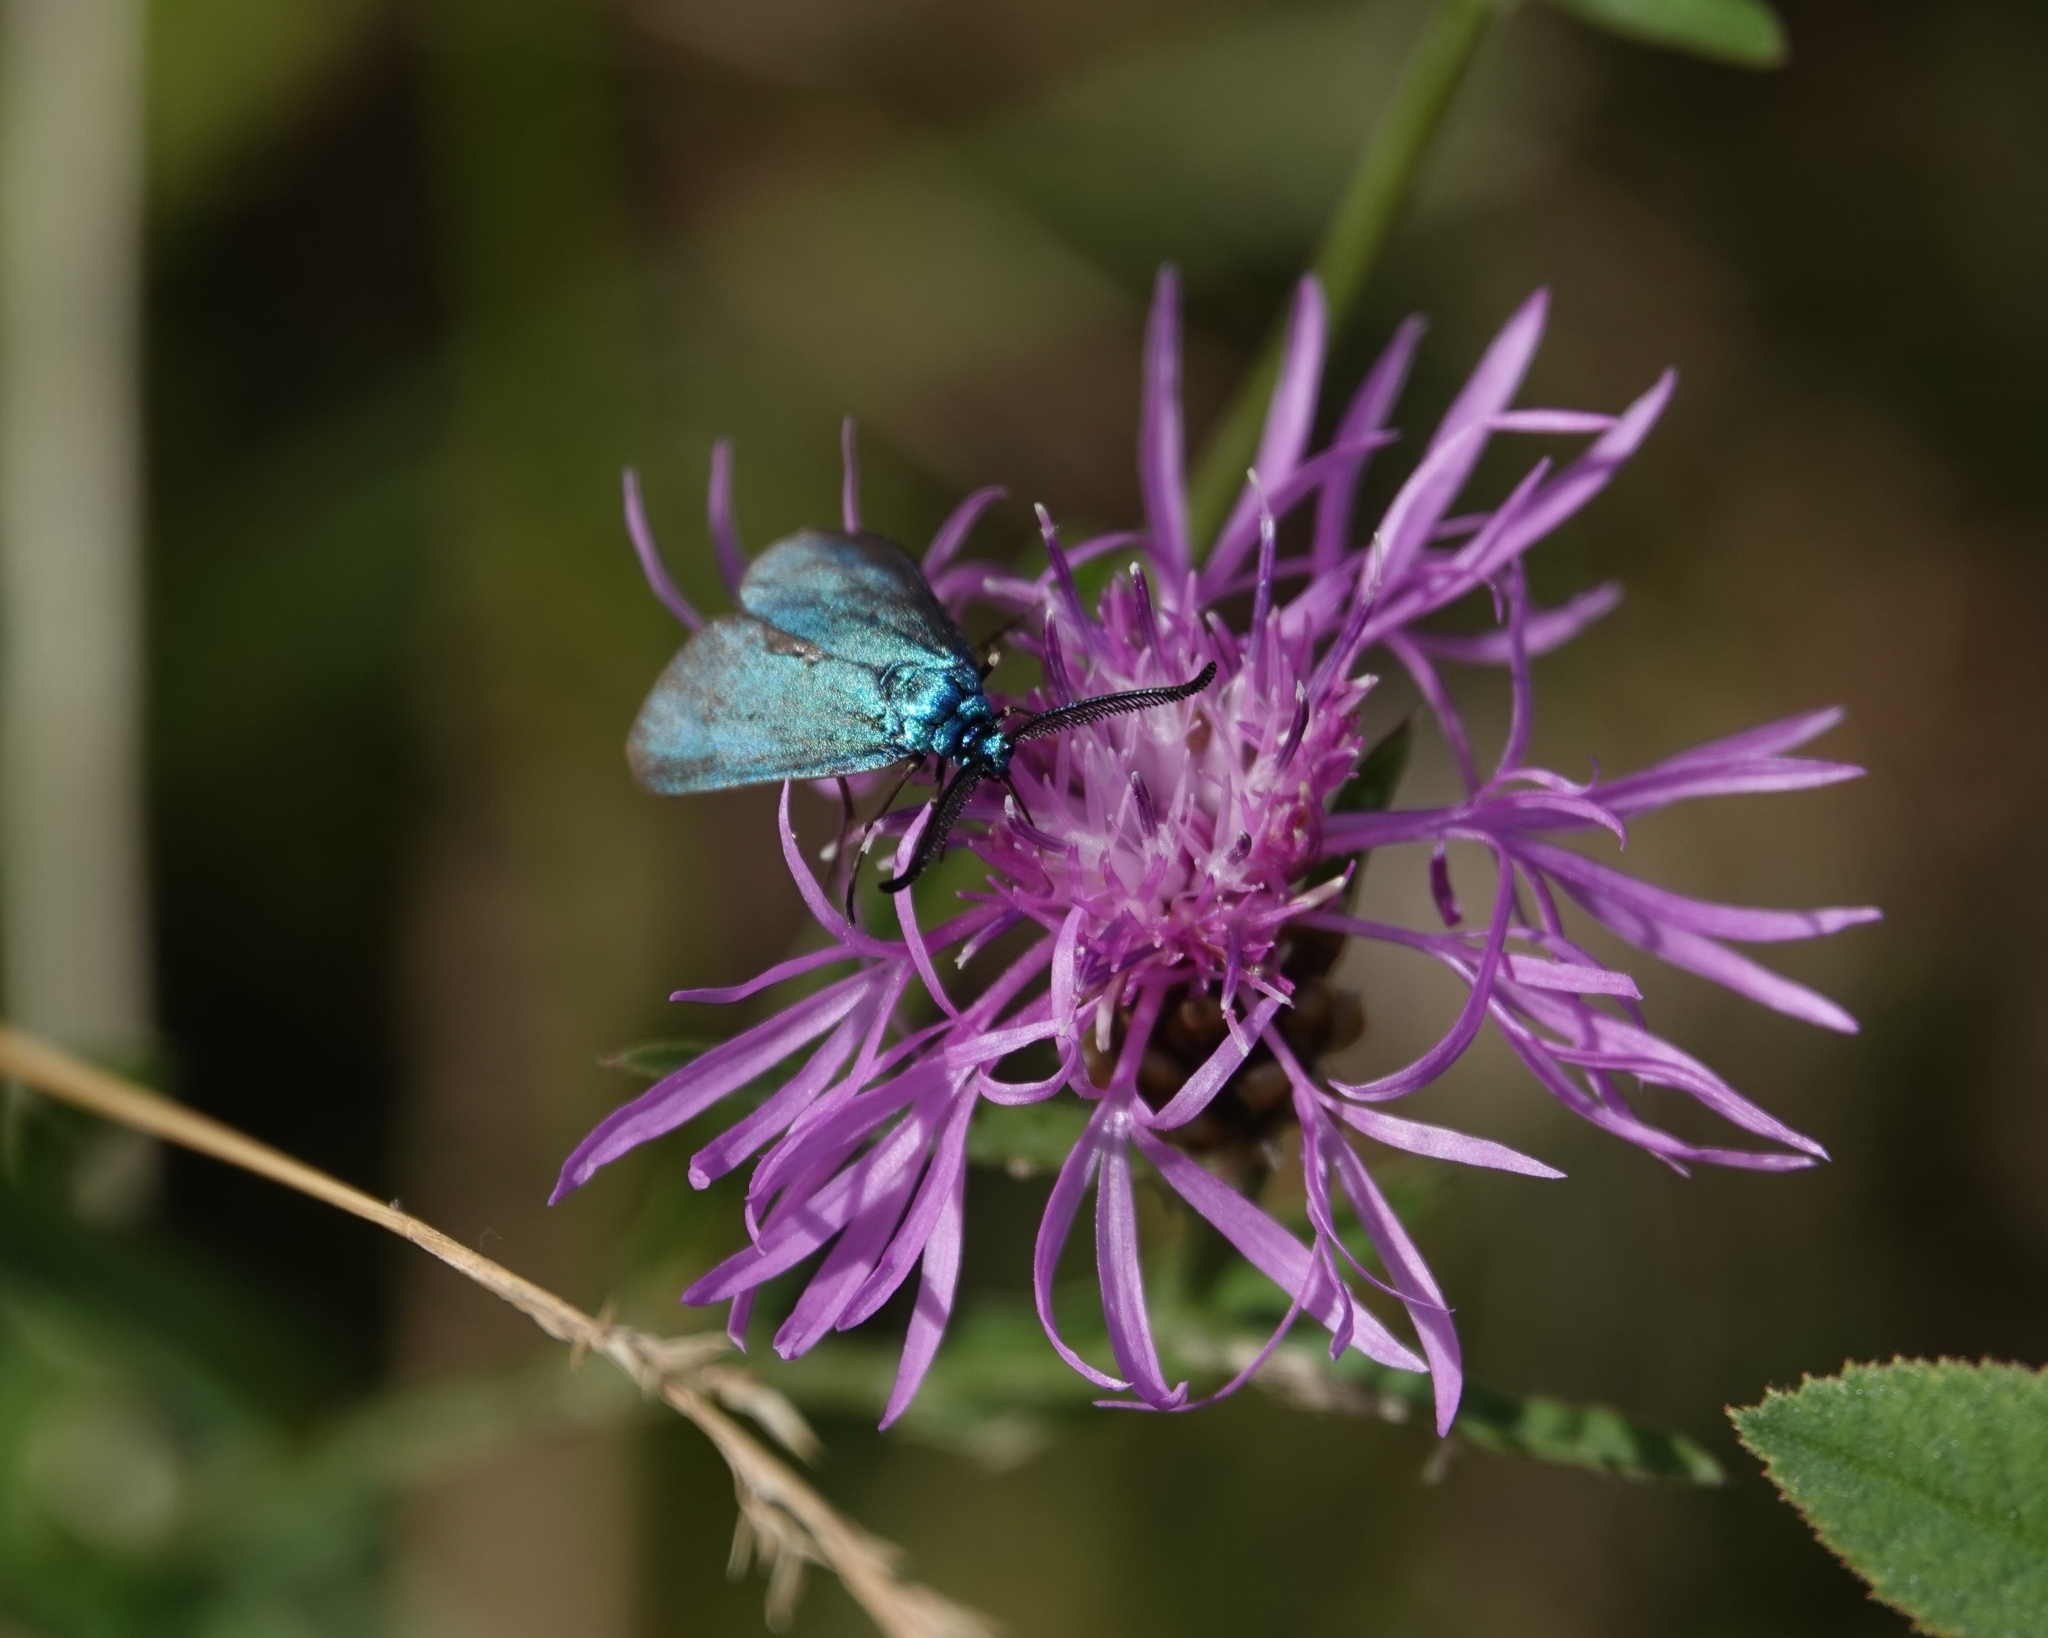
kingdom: Animalia
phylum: Arthropoda
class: Insecta
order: Lepidoptera
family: Zygaenidae
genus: Adscita
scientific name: Adscita statices
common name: Forester
